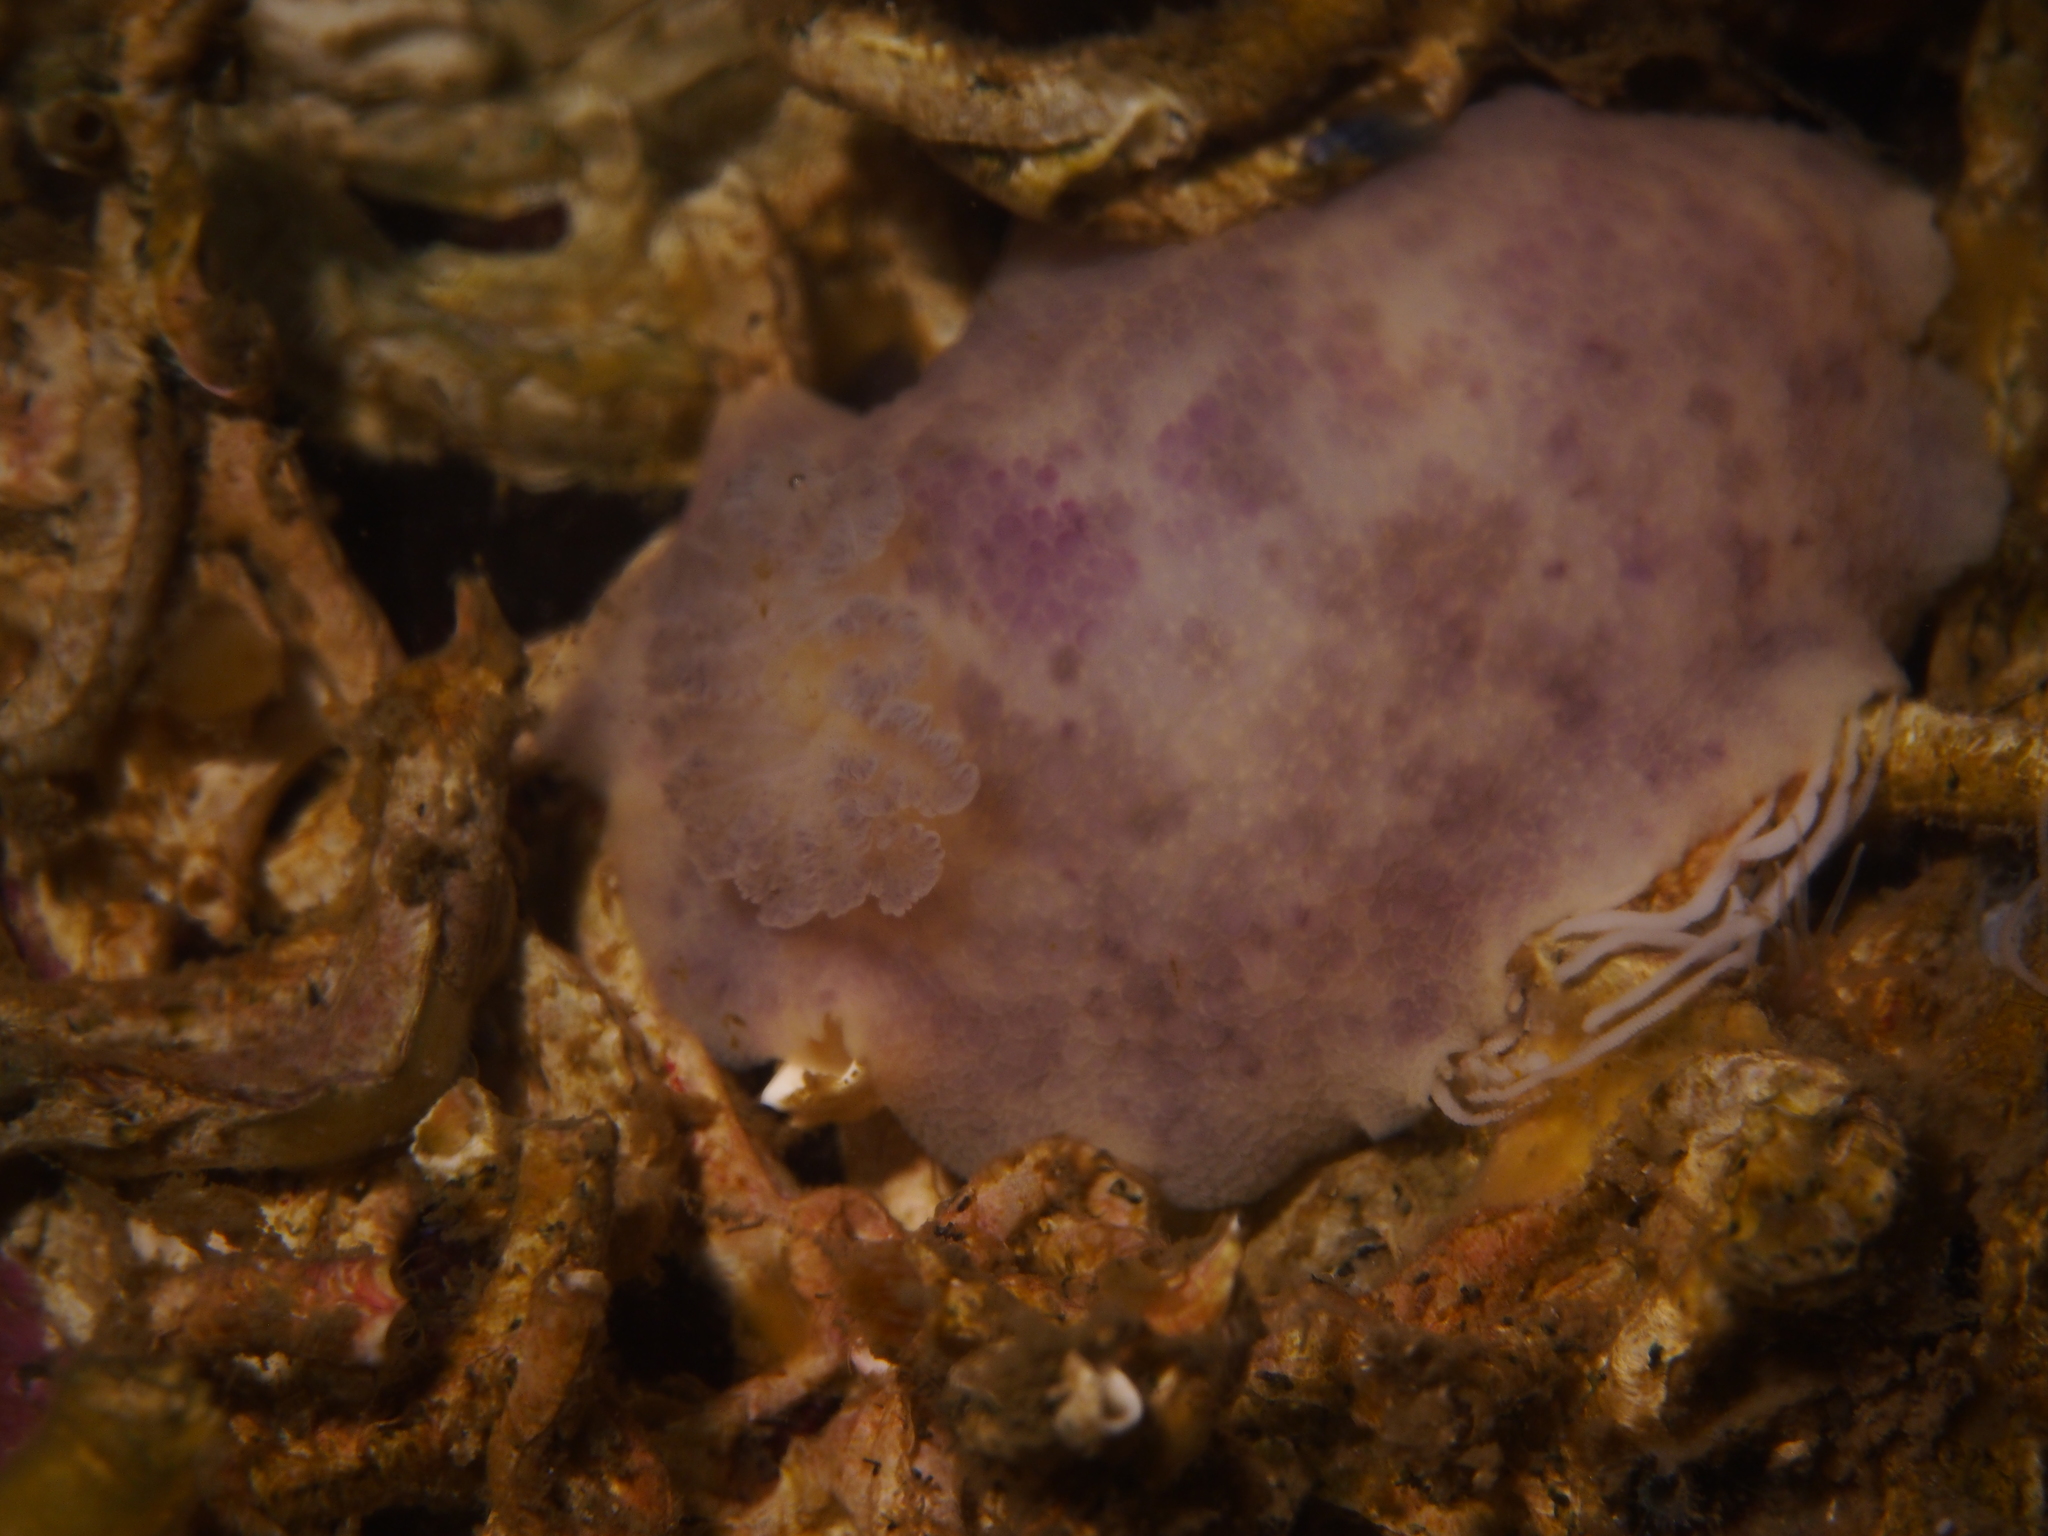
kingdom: Animalia
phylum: Mollusca
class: Gastropoda
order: Nudibranchia
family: Dorididae
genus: Doris
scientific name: Doris pseudoargus
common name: Sea lemon
